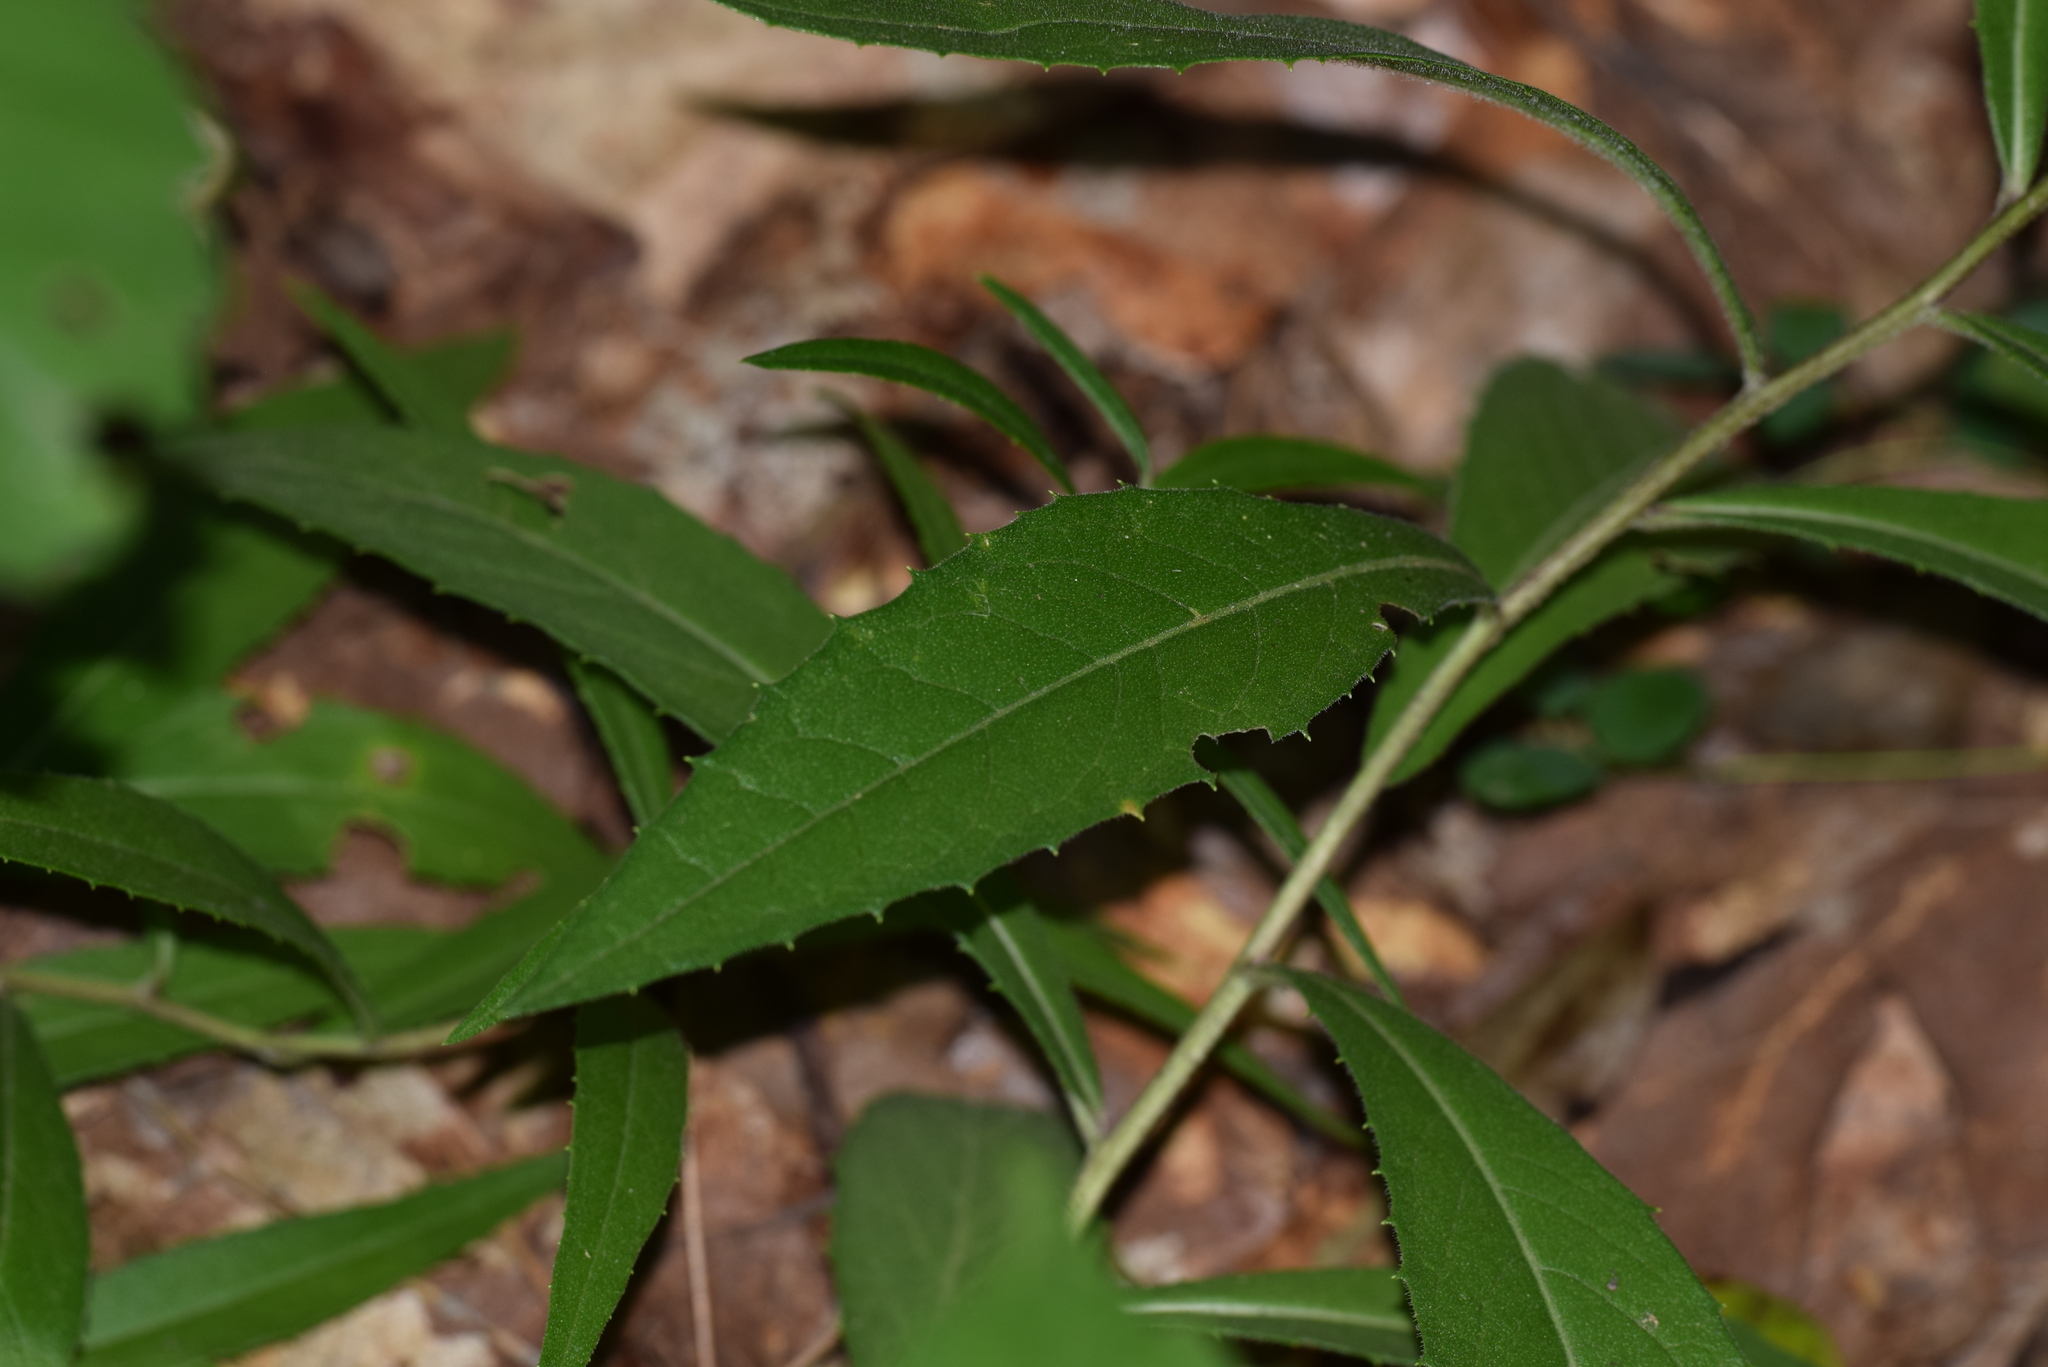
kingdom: Plantae
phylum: Tracheophyta
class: Magnoliopsida
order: Asterales
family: Asteraceae
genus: Vernonia
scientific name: Vernonia texana
